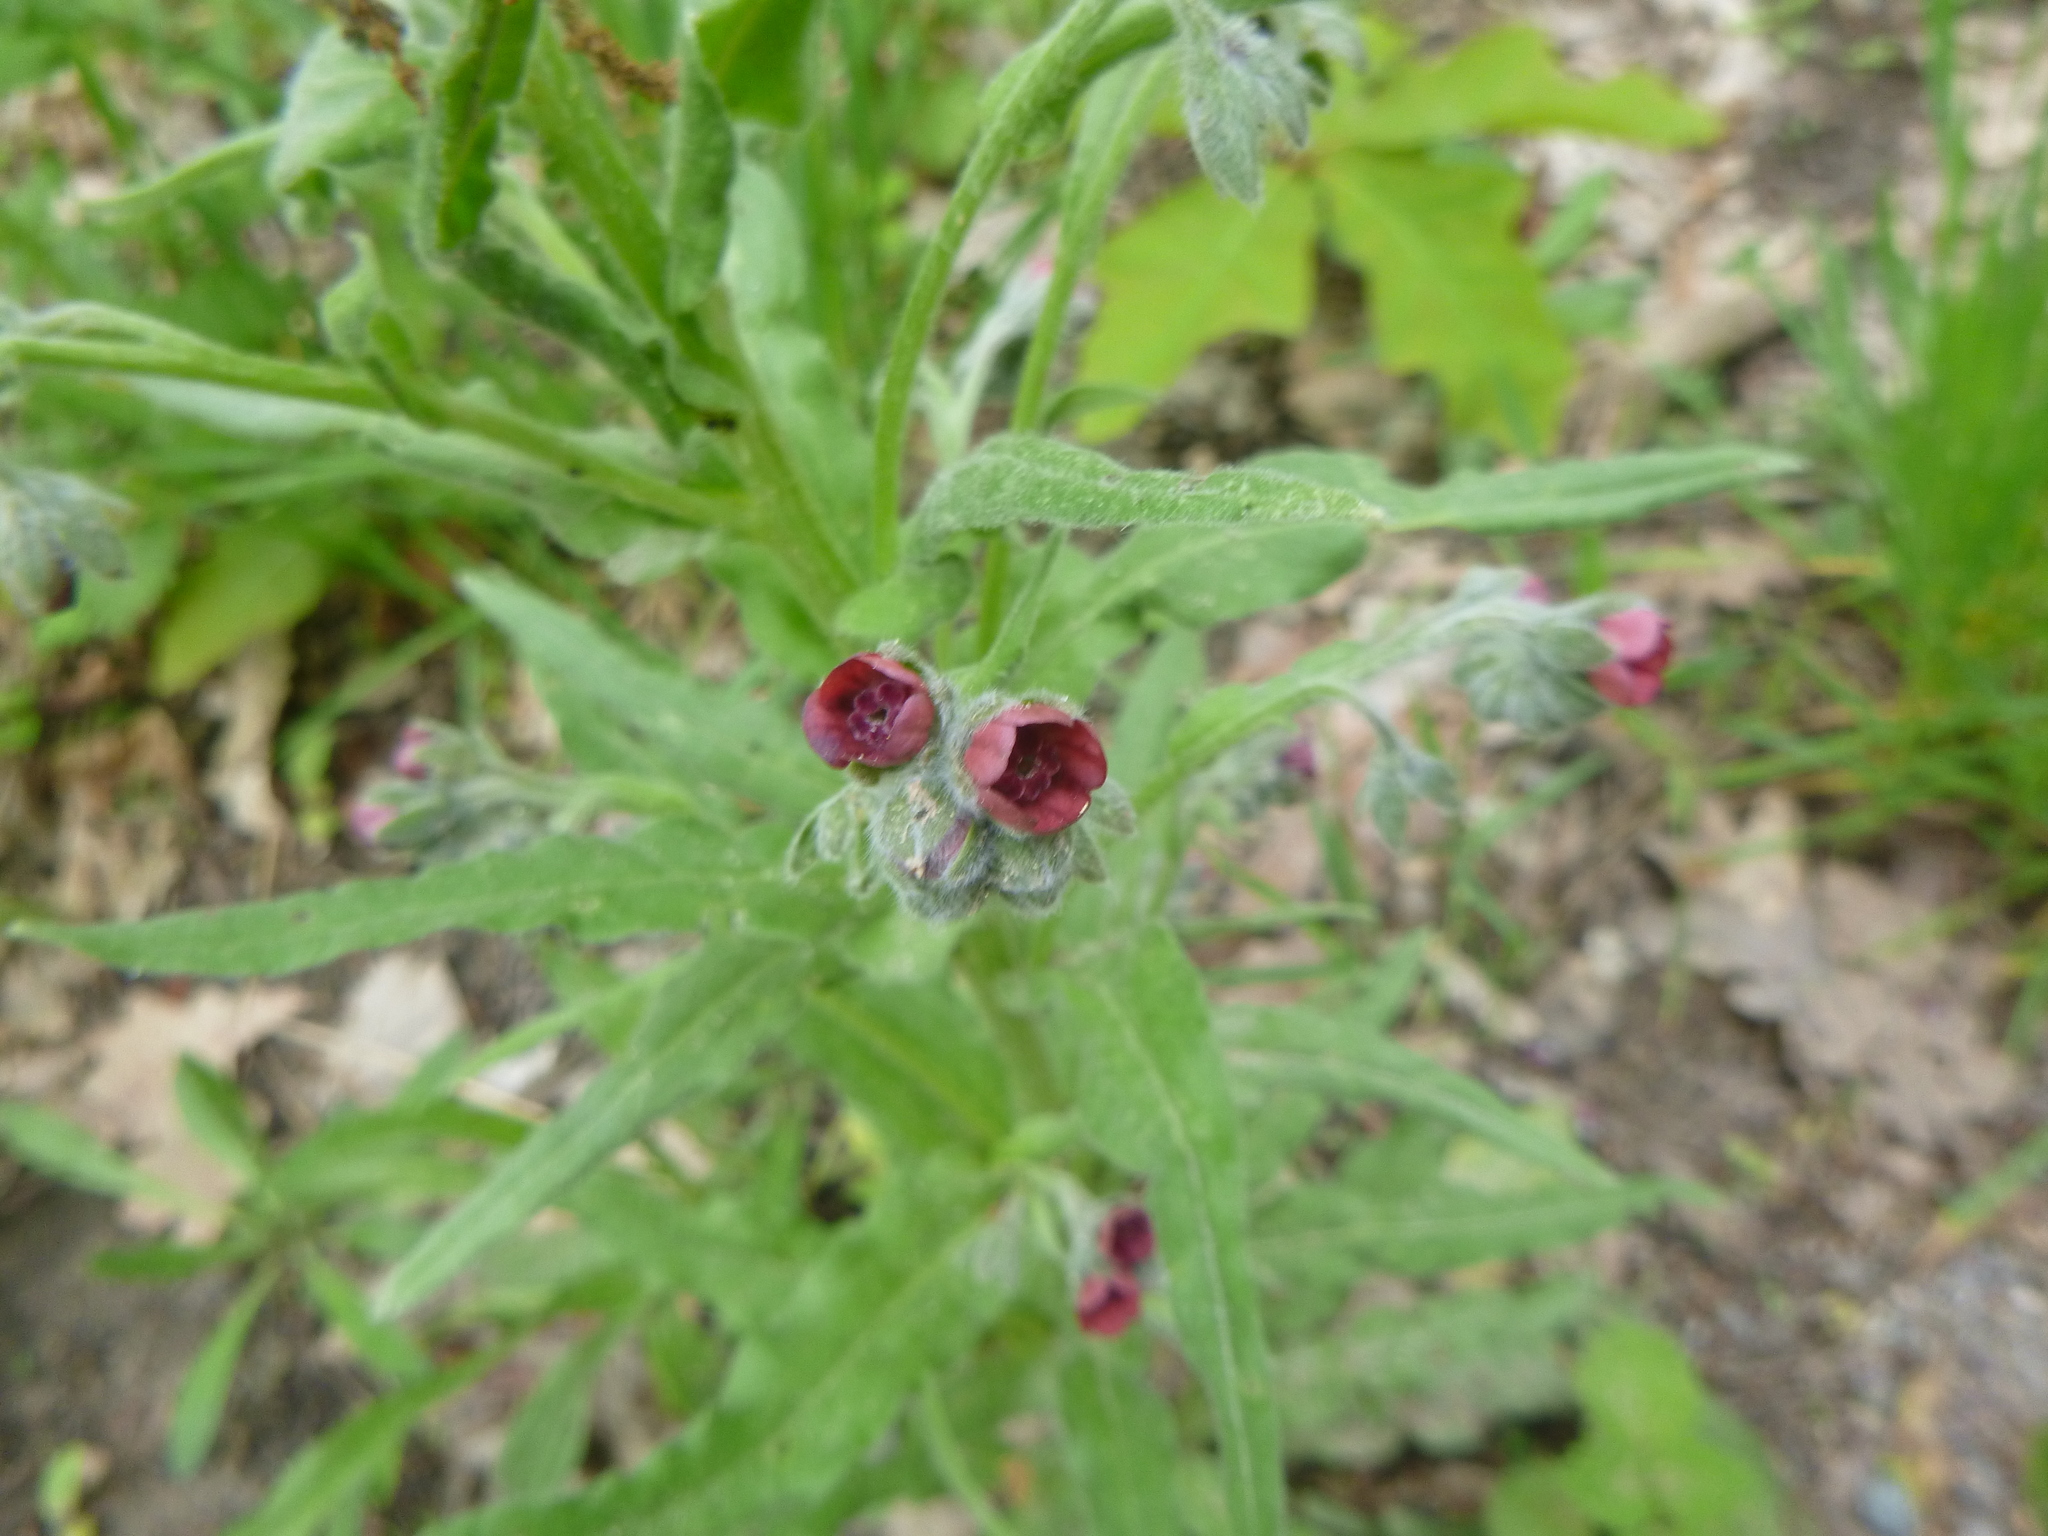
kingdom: Plantae
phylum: Tracheophyta
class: Magnoliopsida
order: Boraginales
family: Boraginaceae
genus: Cynoglossum
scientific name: Cynoglossum officinale
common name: Hound's-tongue
